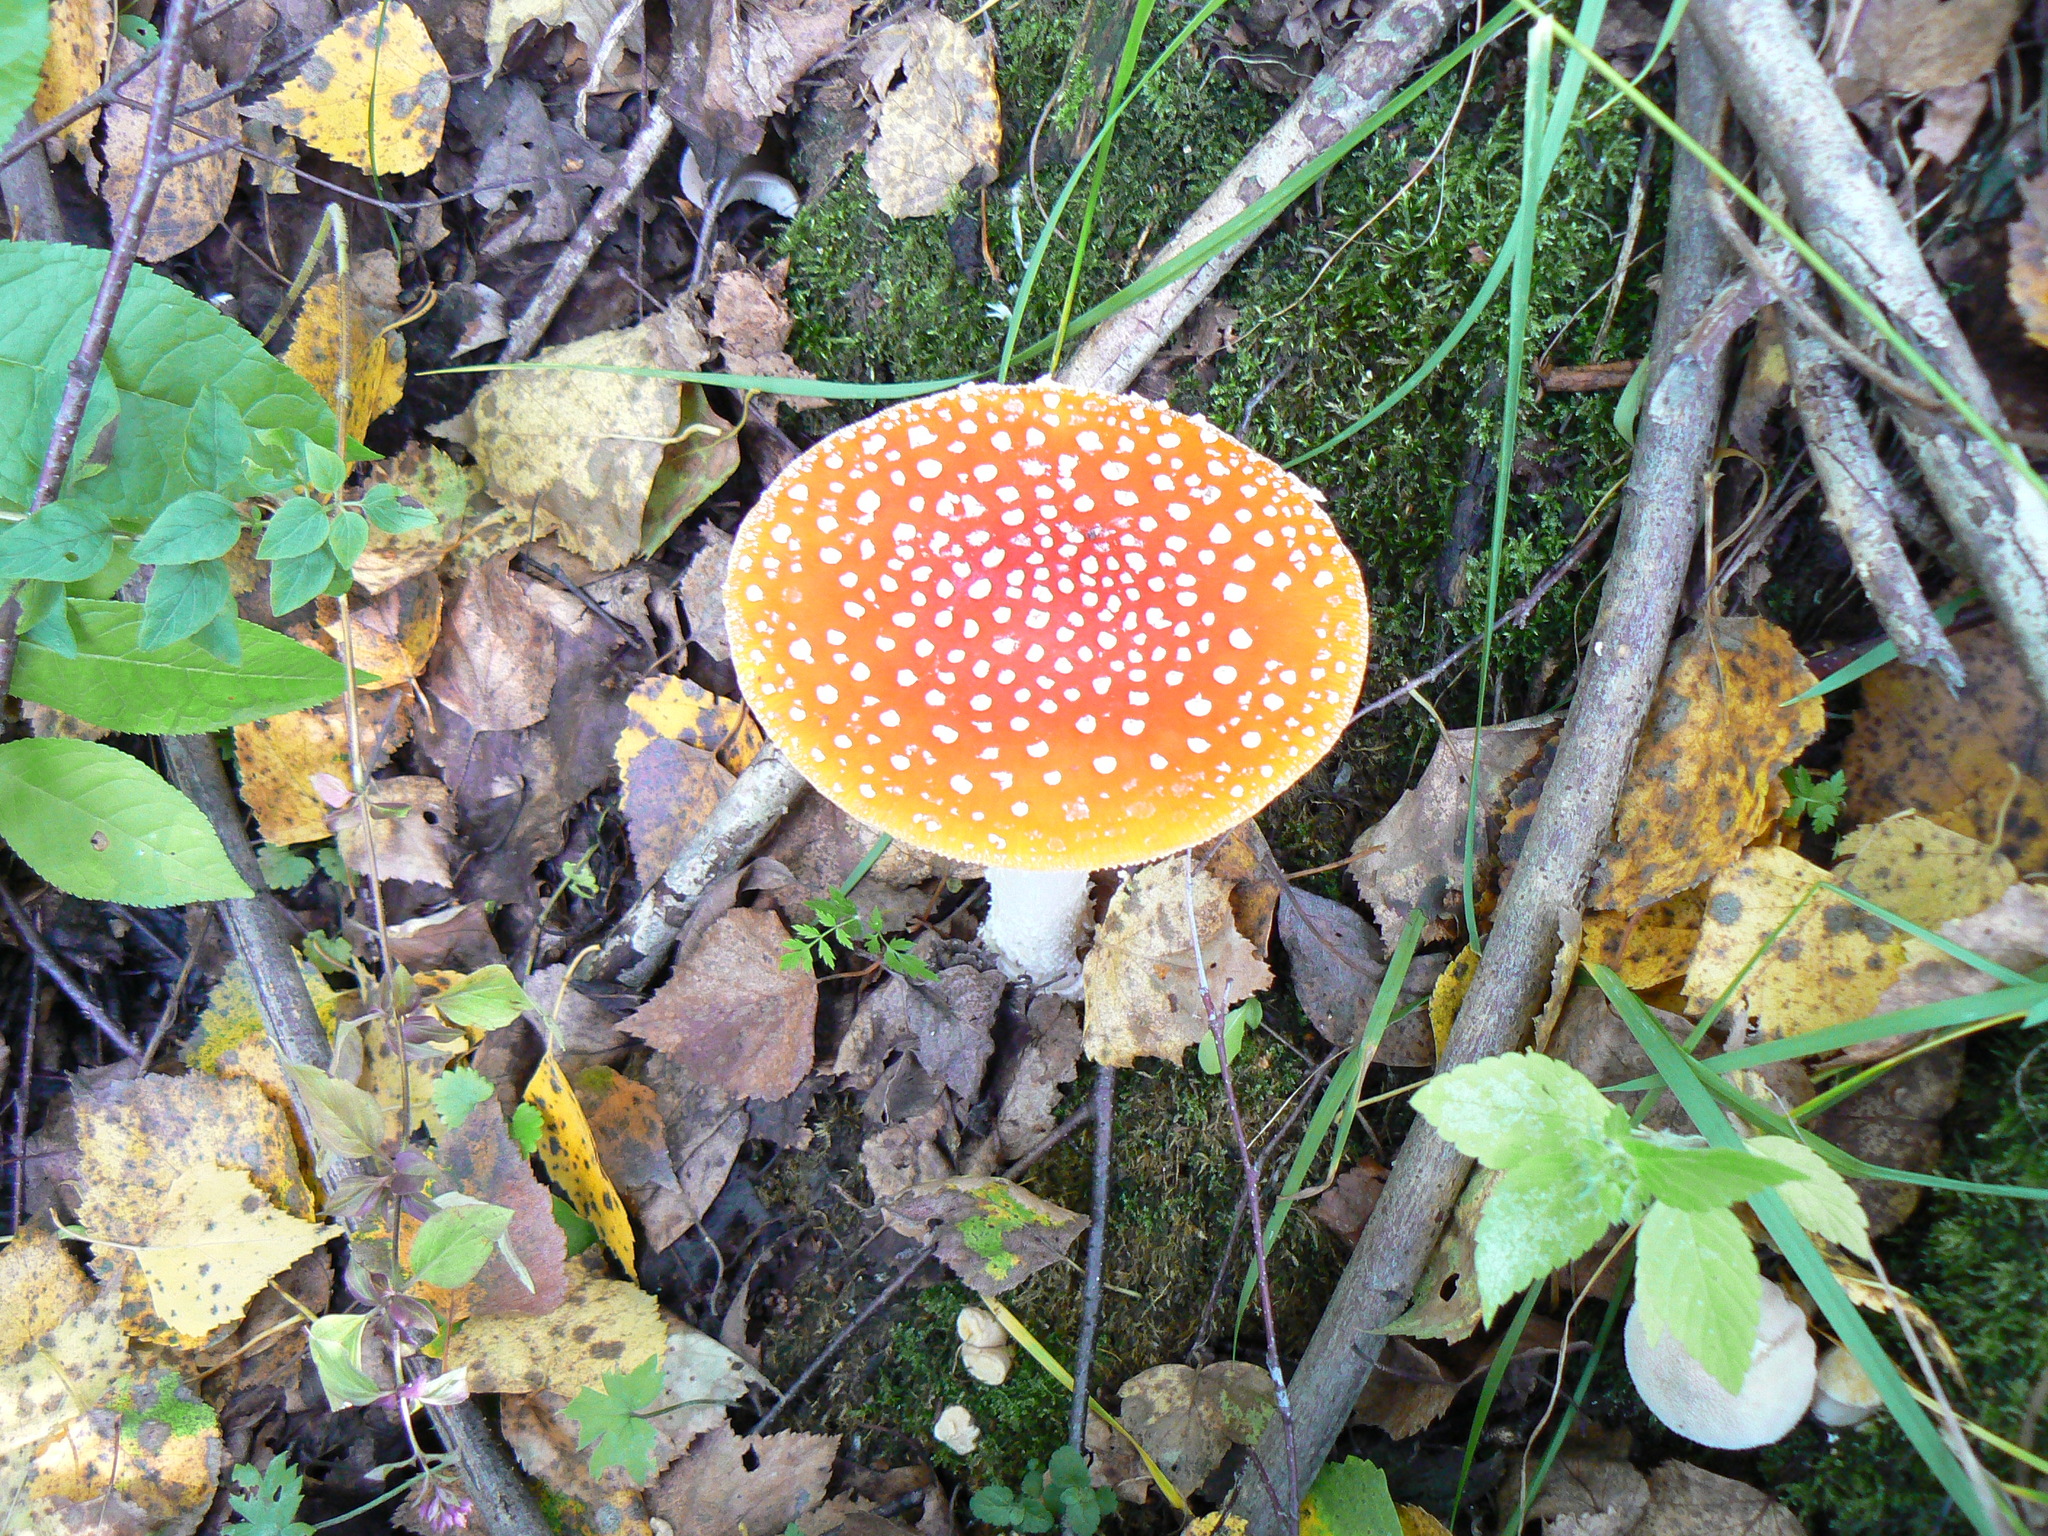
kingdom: Fungi
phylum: Basidiomycota
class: Agaricomycetes
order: Agaricales
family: Amanitaceae
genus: Amanita
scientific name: Amanita muscaria
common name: Fly agaric
